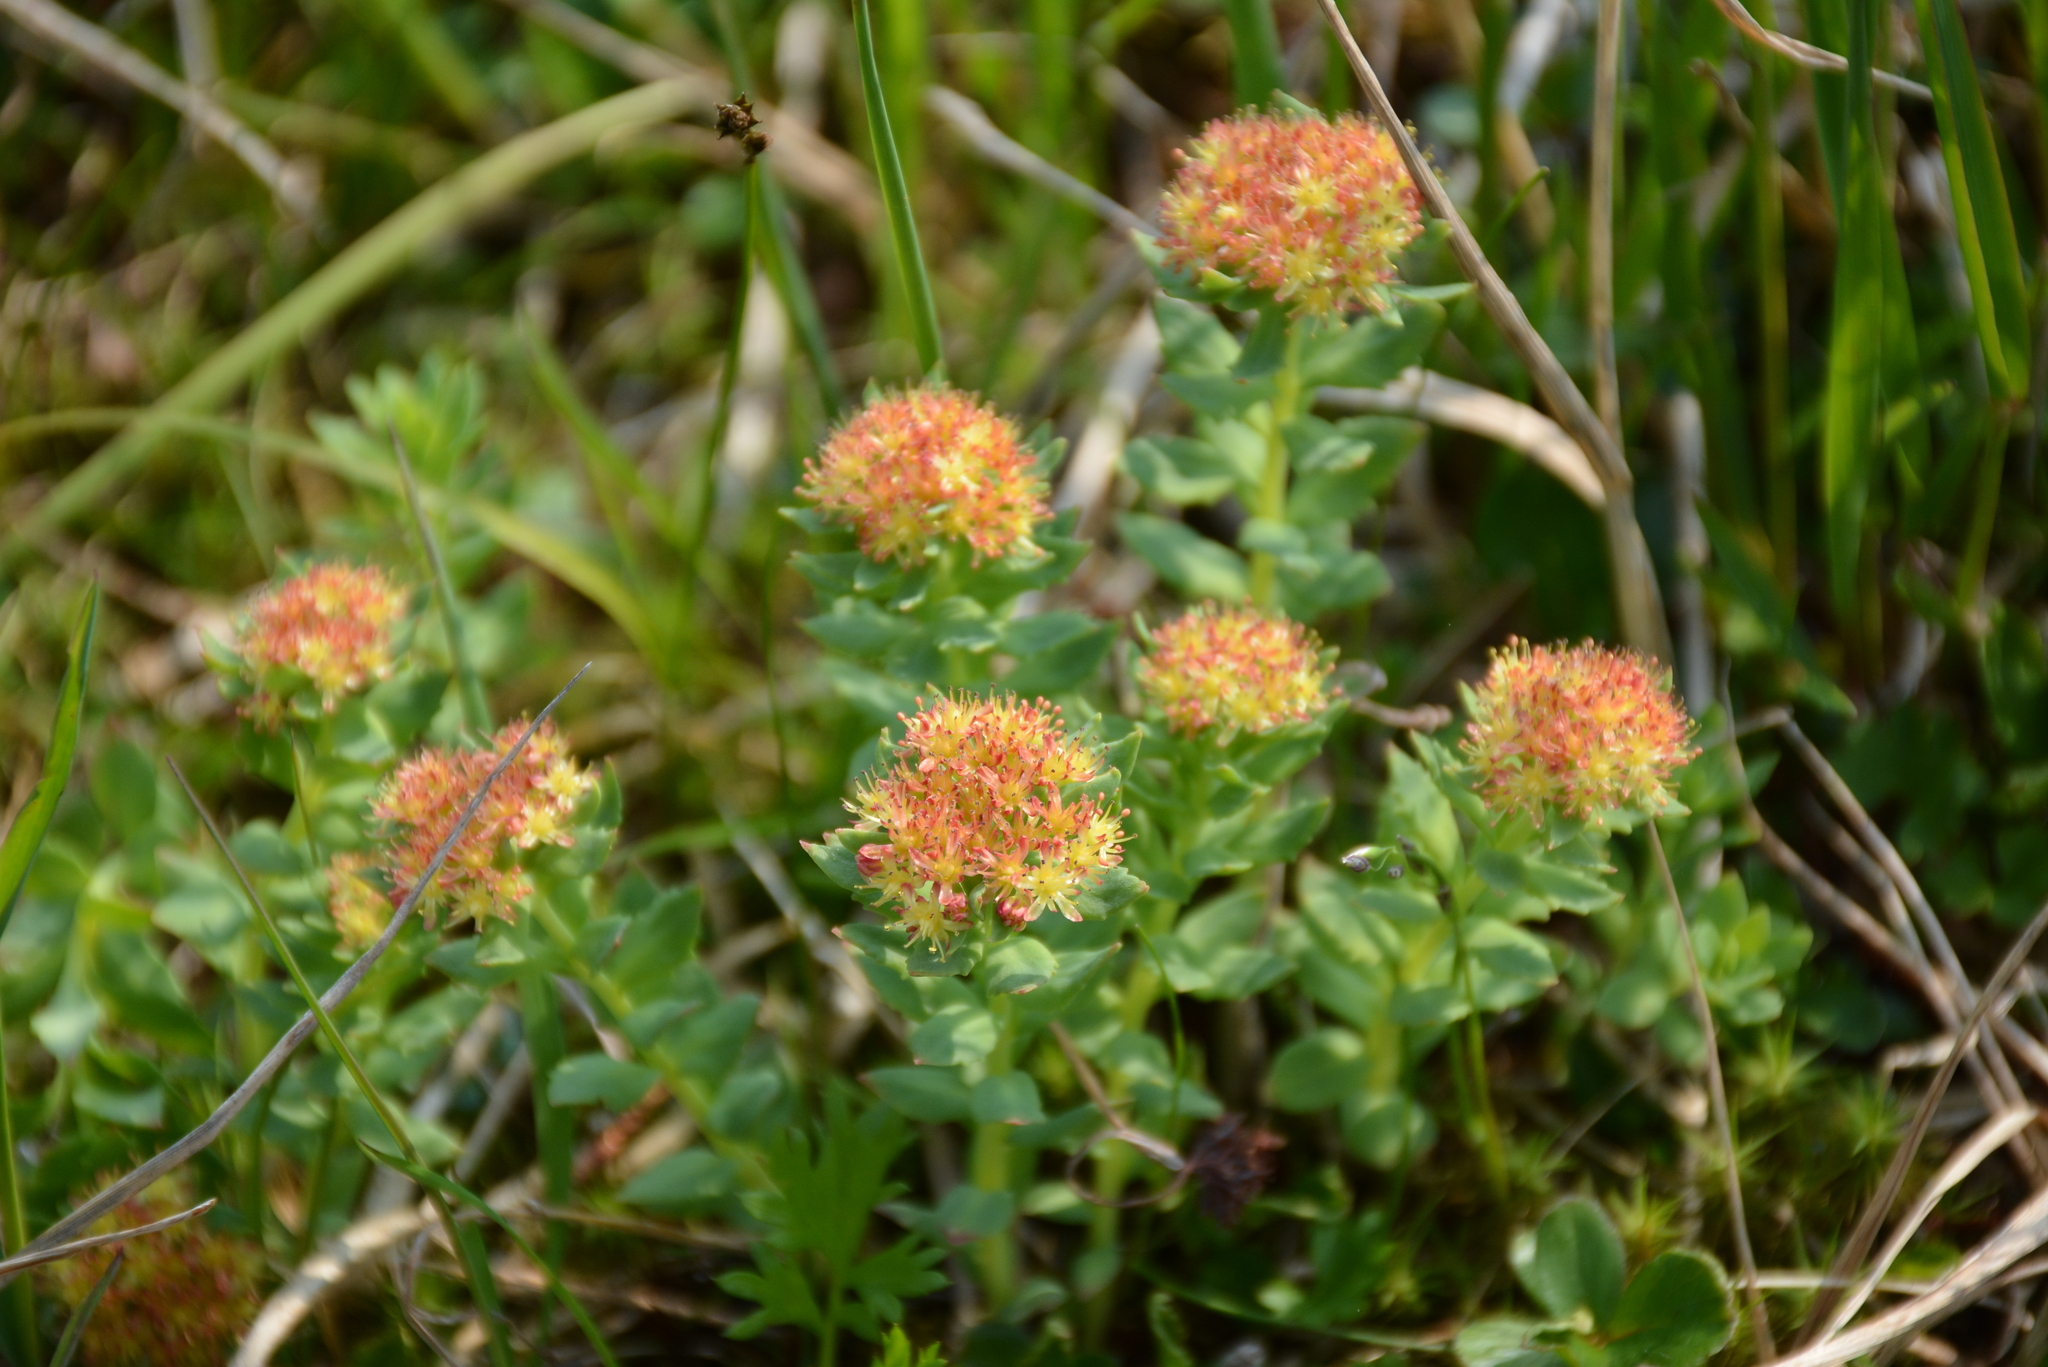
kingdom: Plantae
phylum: Tracheophyta
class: Magnoliopsida
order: Saxifragales
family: Crassulaceae
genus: Rhodiola
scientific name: Rhodiola rosea
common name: Roseroot
